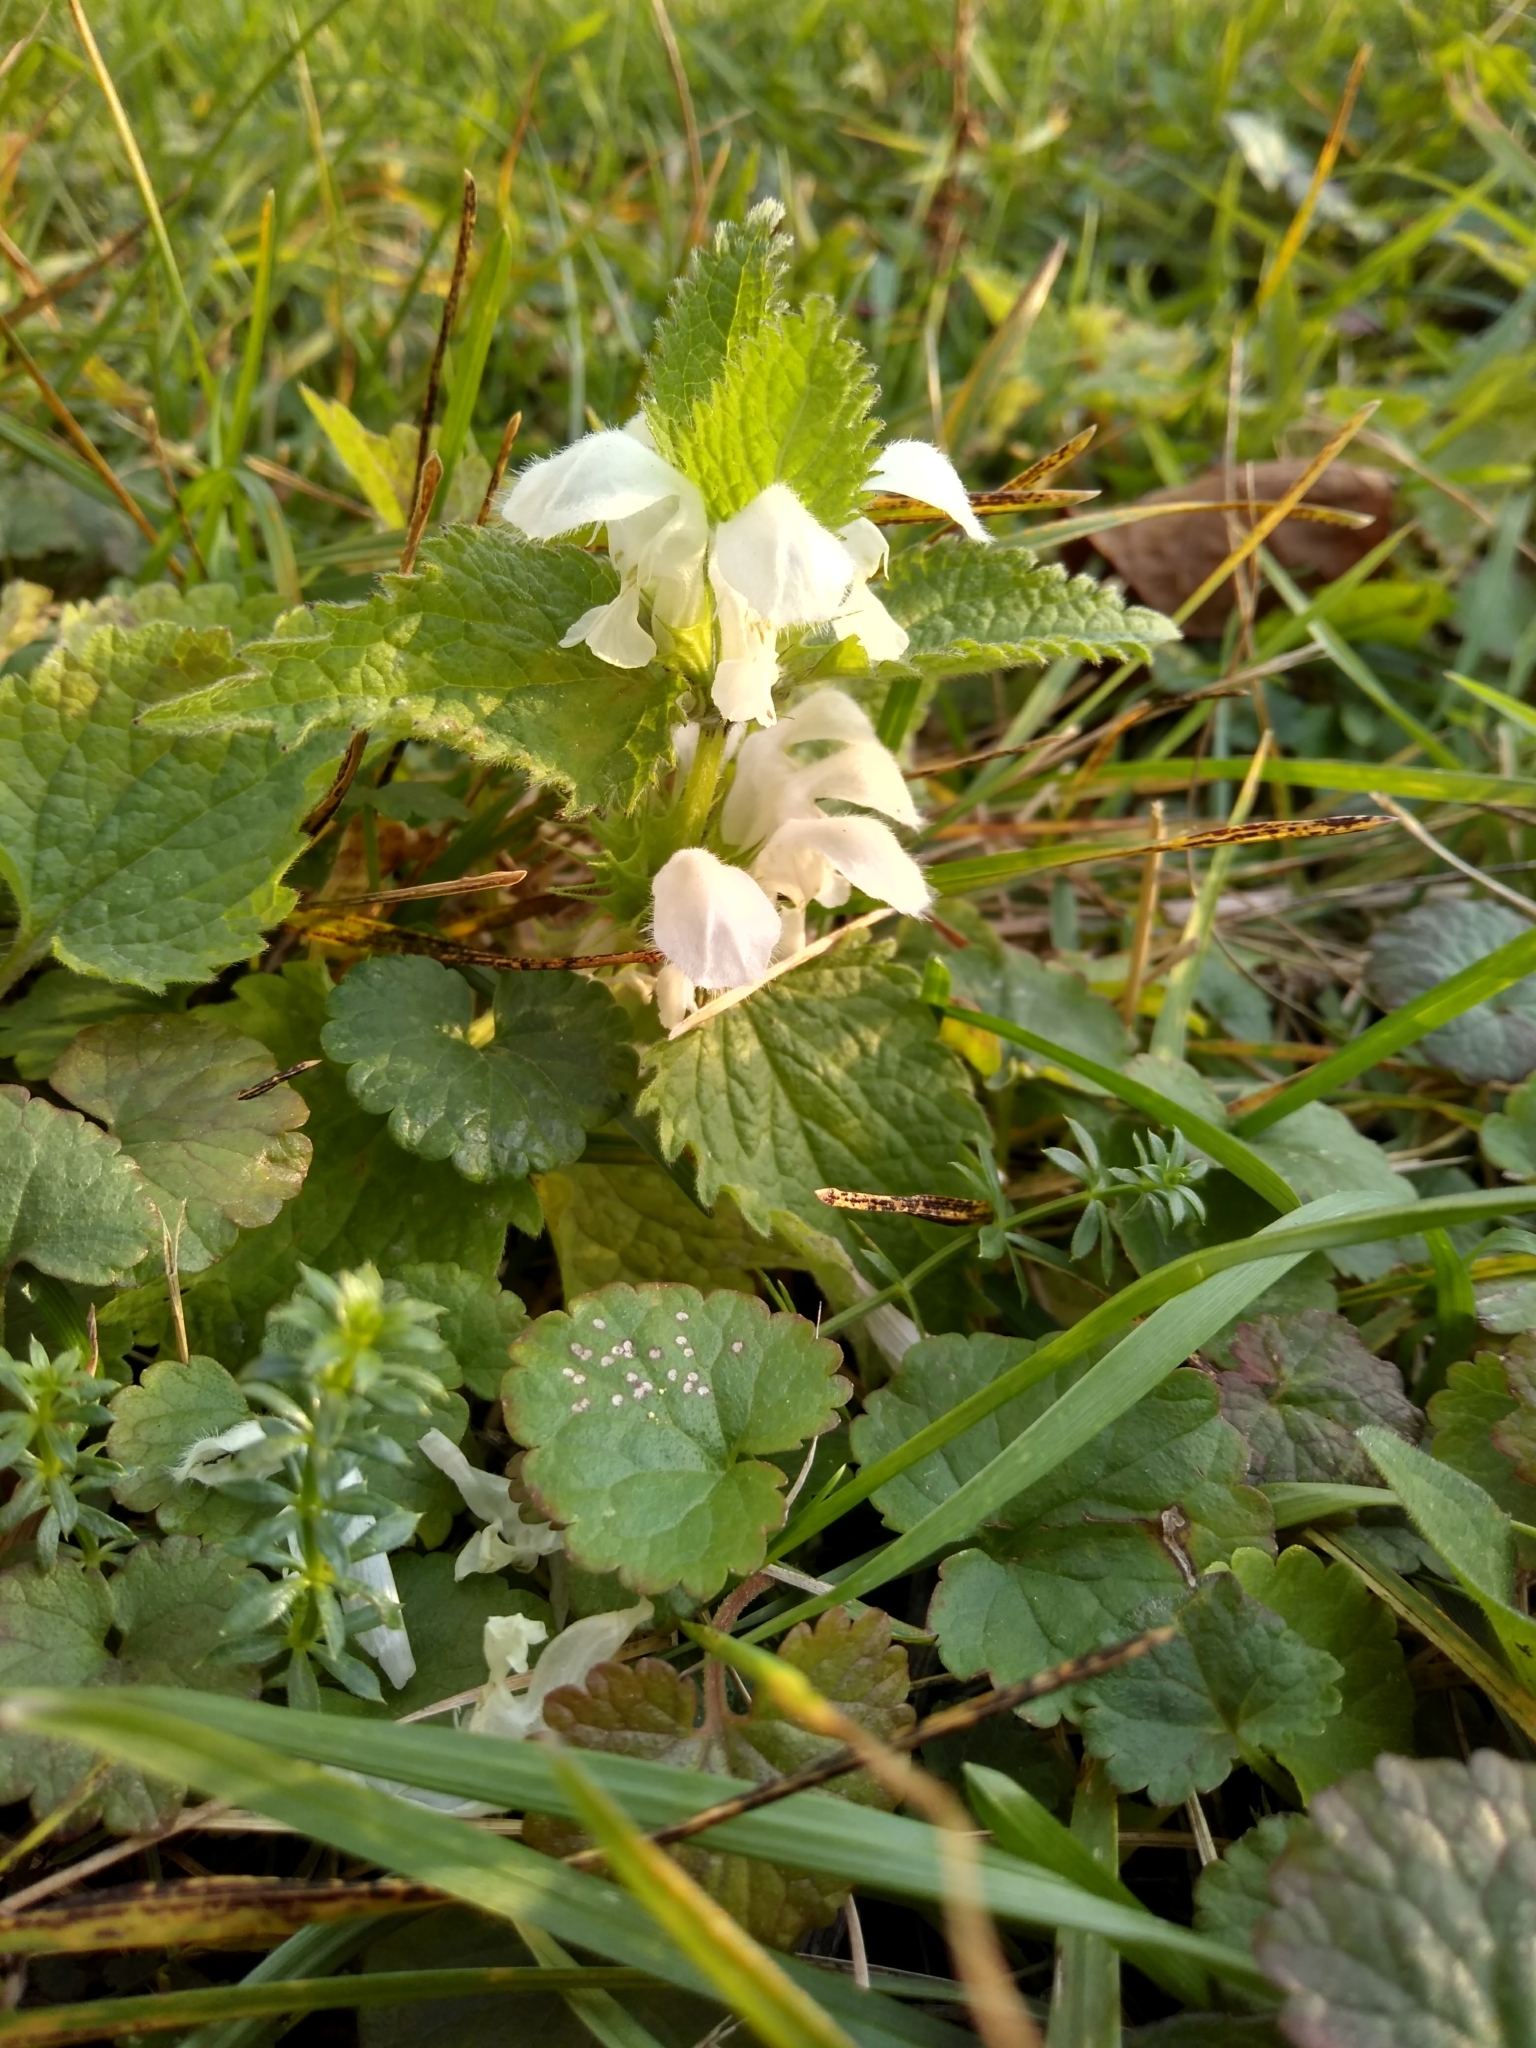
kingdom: Plantae
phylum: Tracheophyta
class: Magnoliopsida
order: Lamiales
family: Lamiaceae
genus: Lamium
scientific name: Lamium album
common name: White dead-nettle
